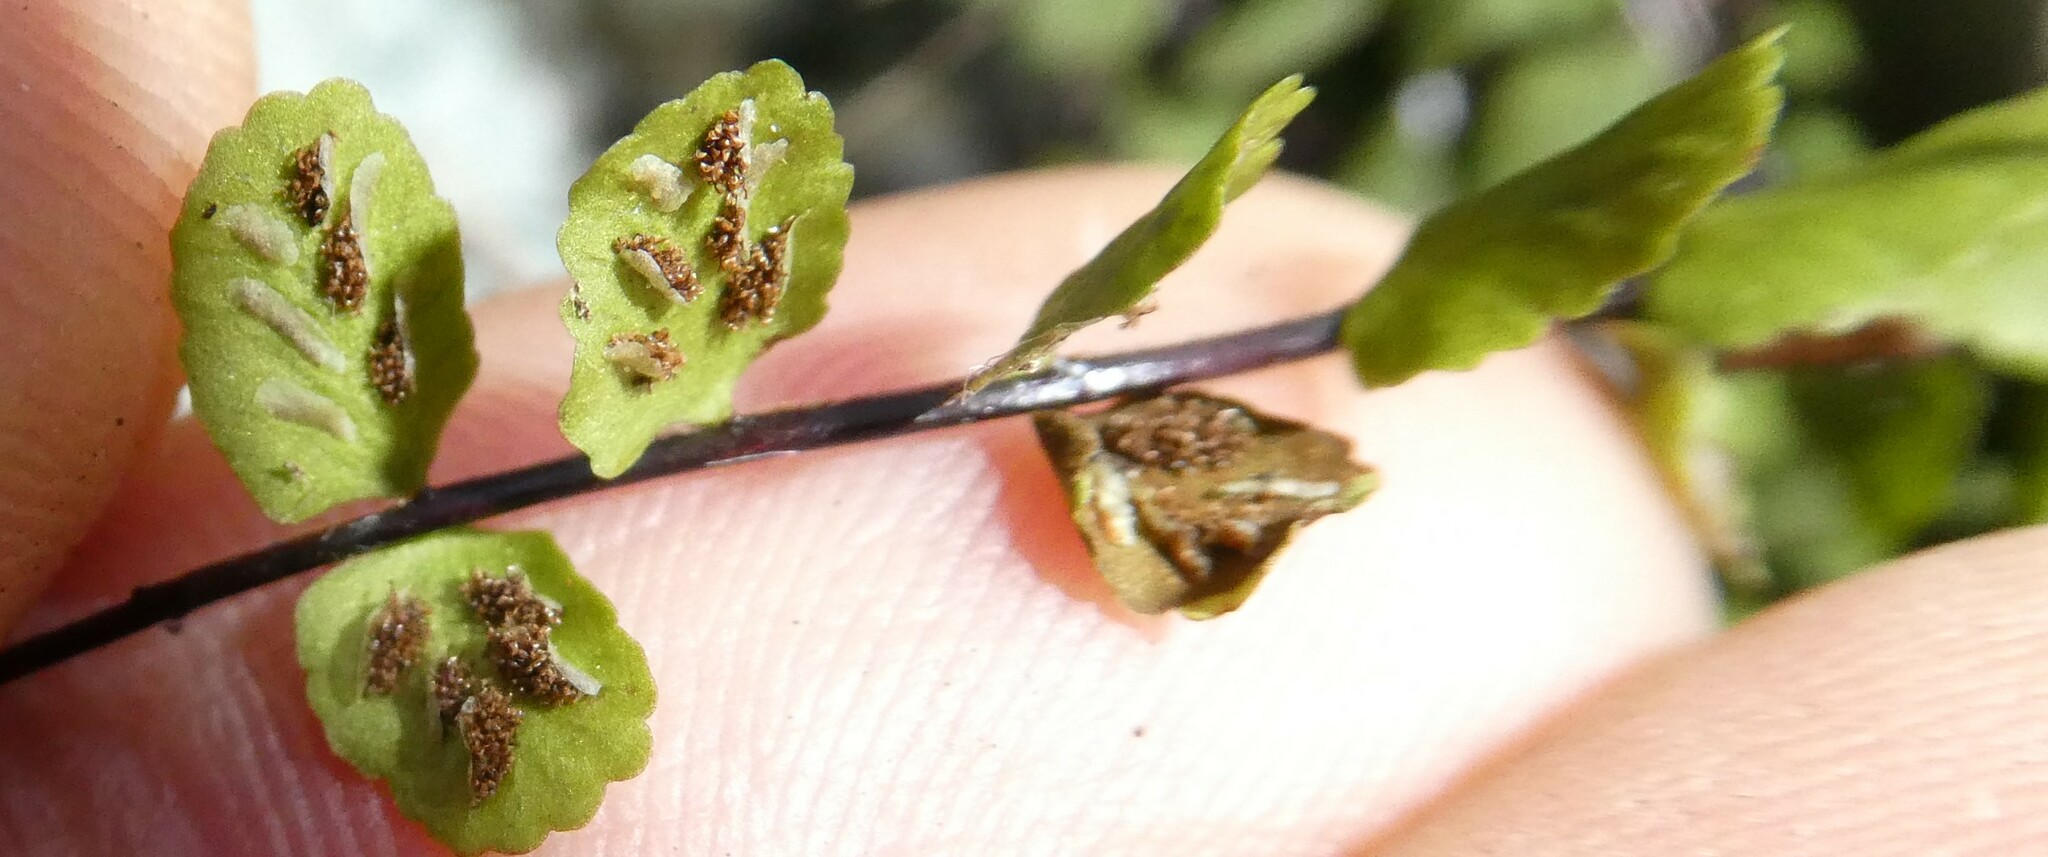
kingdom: Plantae
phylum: Tracheophyta
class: Polypodiopsida
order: Polypodiales
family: Aspleniaceae
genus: Asplenium
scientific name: Asplenium trichomanes
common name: Maidenhair spleenwort
